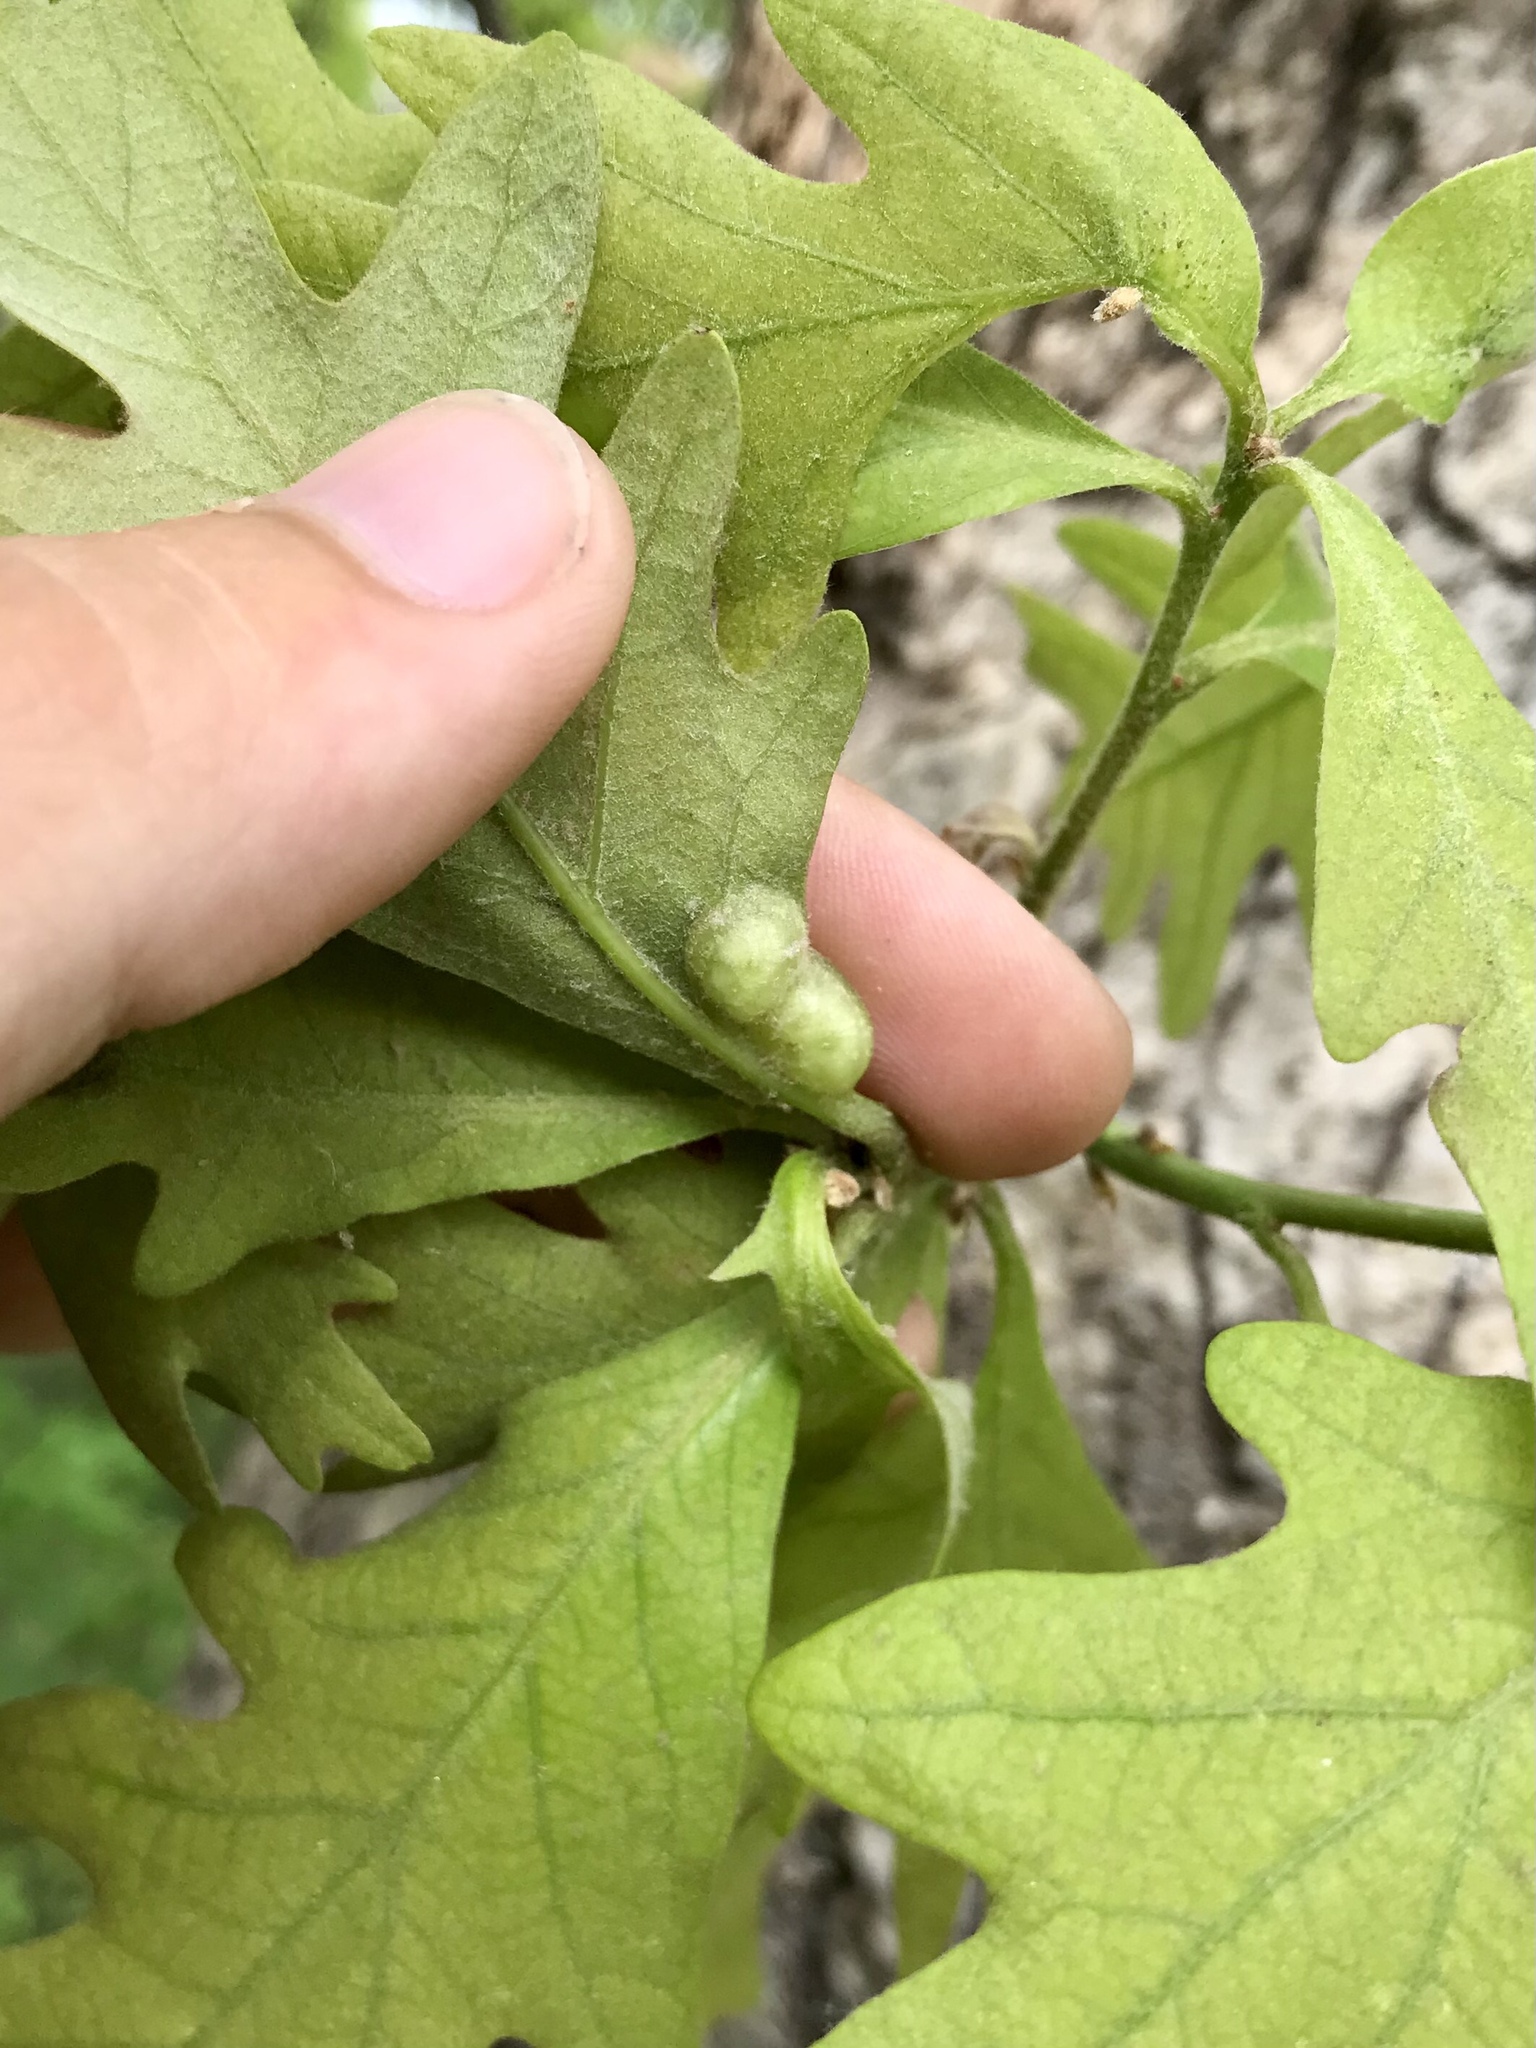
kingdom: Animalia
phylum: Arthropoda
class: Insecta
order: Hymenoptera
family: Cynipidae
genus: Callirhytis
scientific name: Callirhytis
